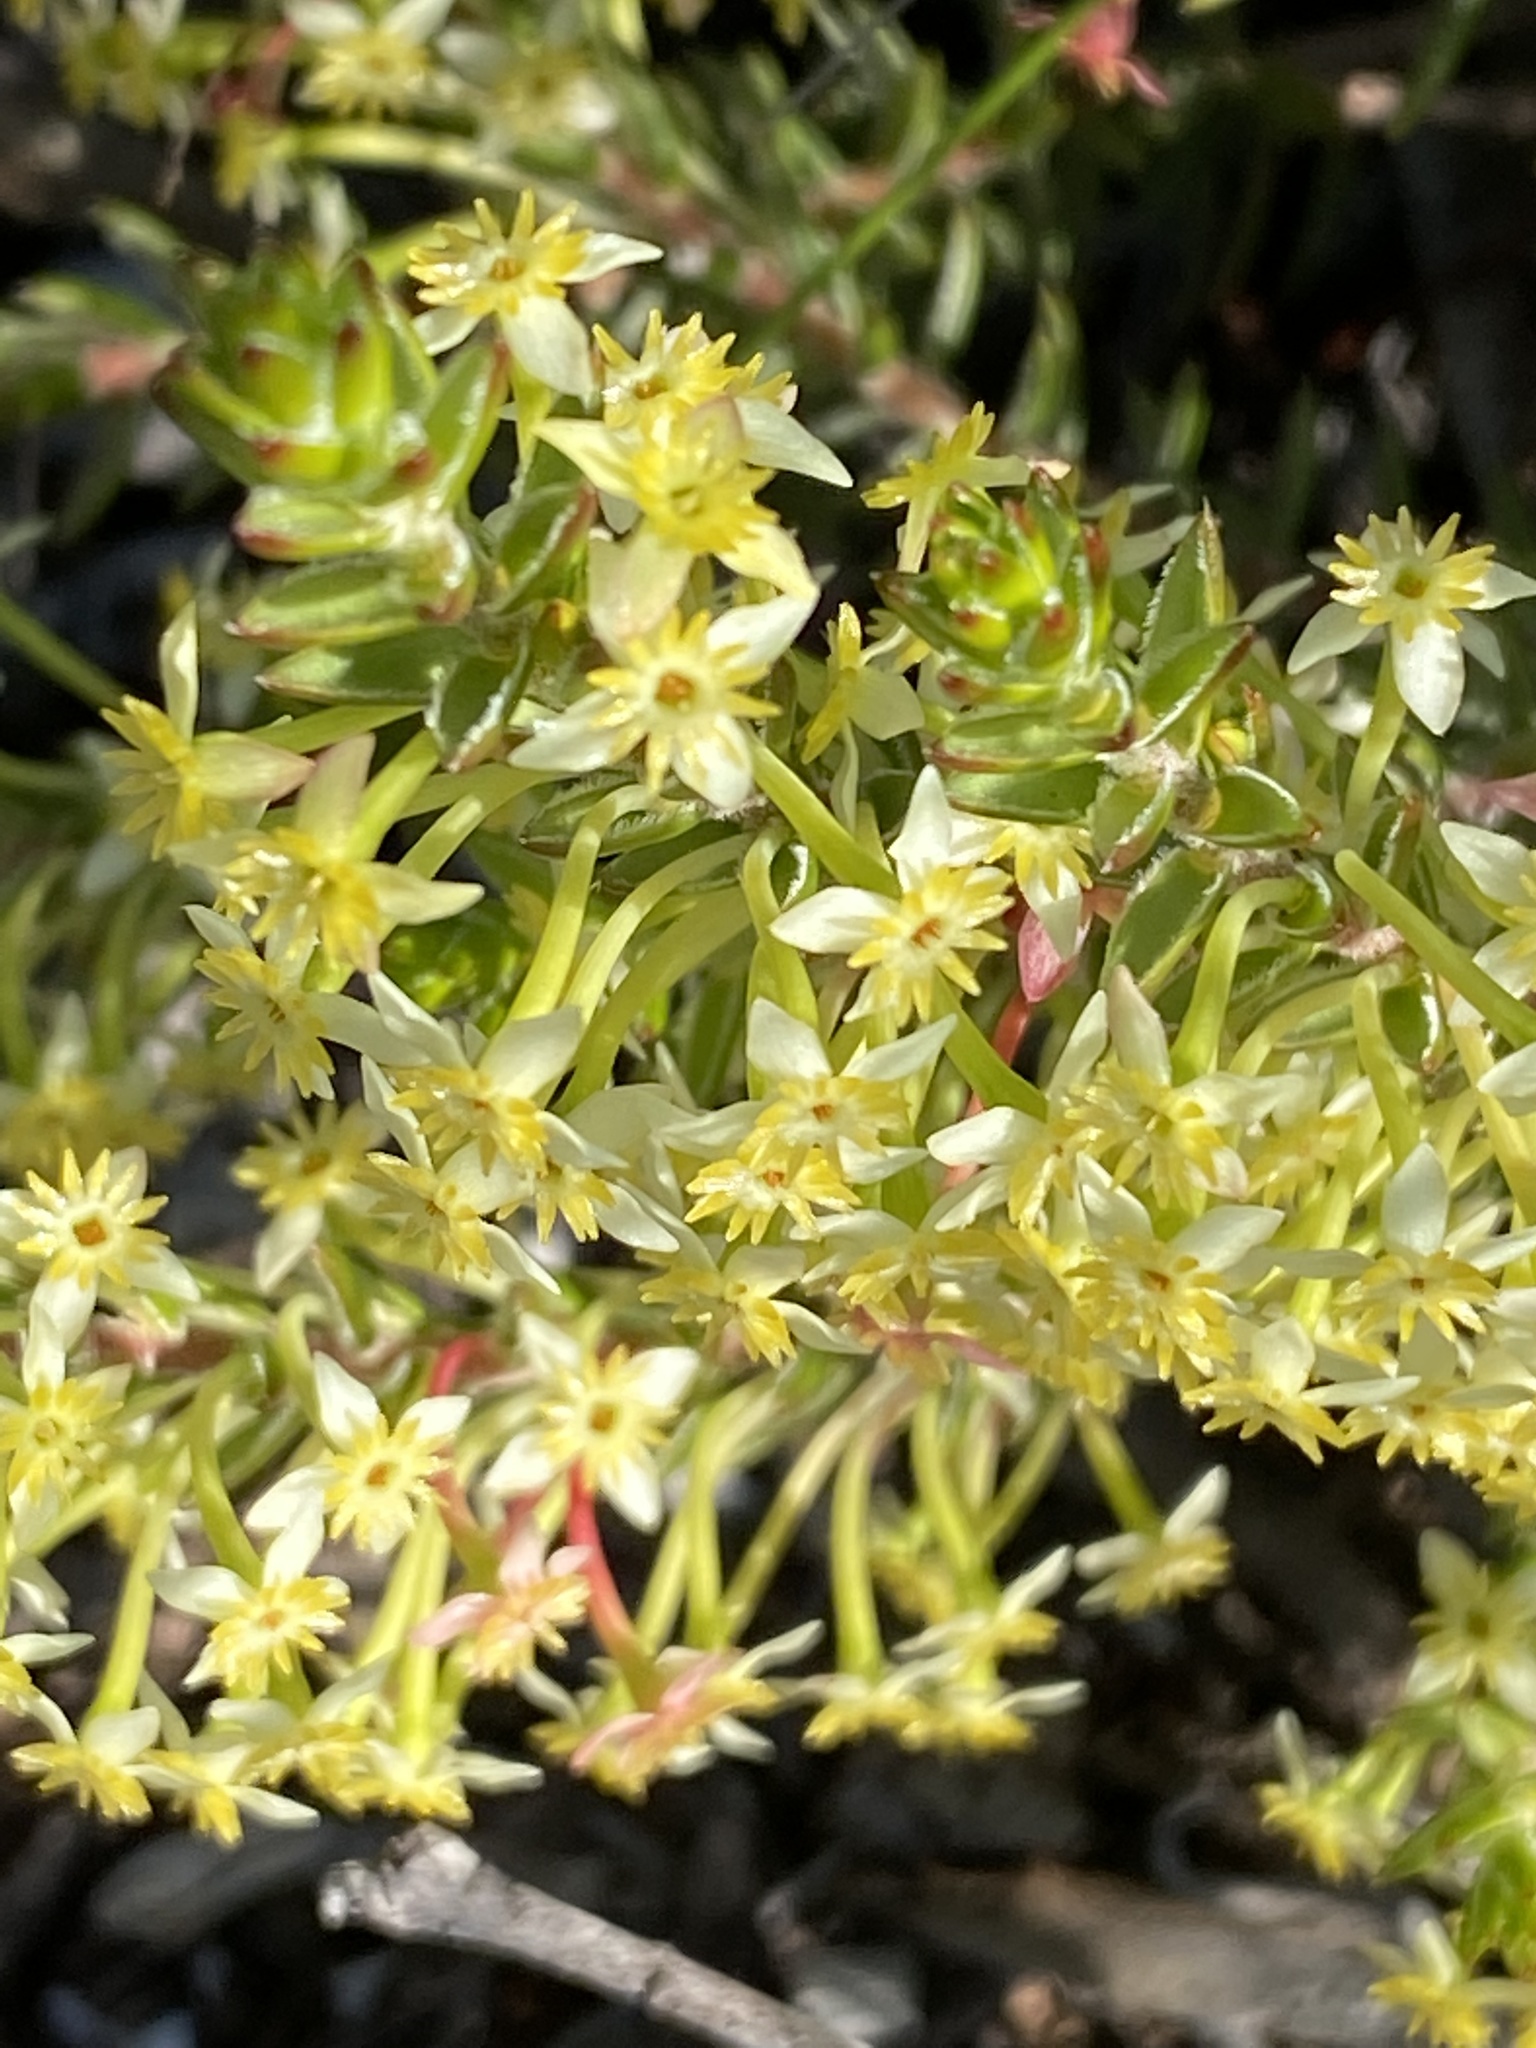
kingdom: Plantae
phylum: Tracheophyta
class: Magnoliopsida
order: Malvales
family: Thymelaeaceae
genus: Struthiola
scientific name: Struthiola rigida
